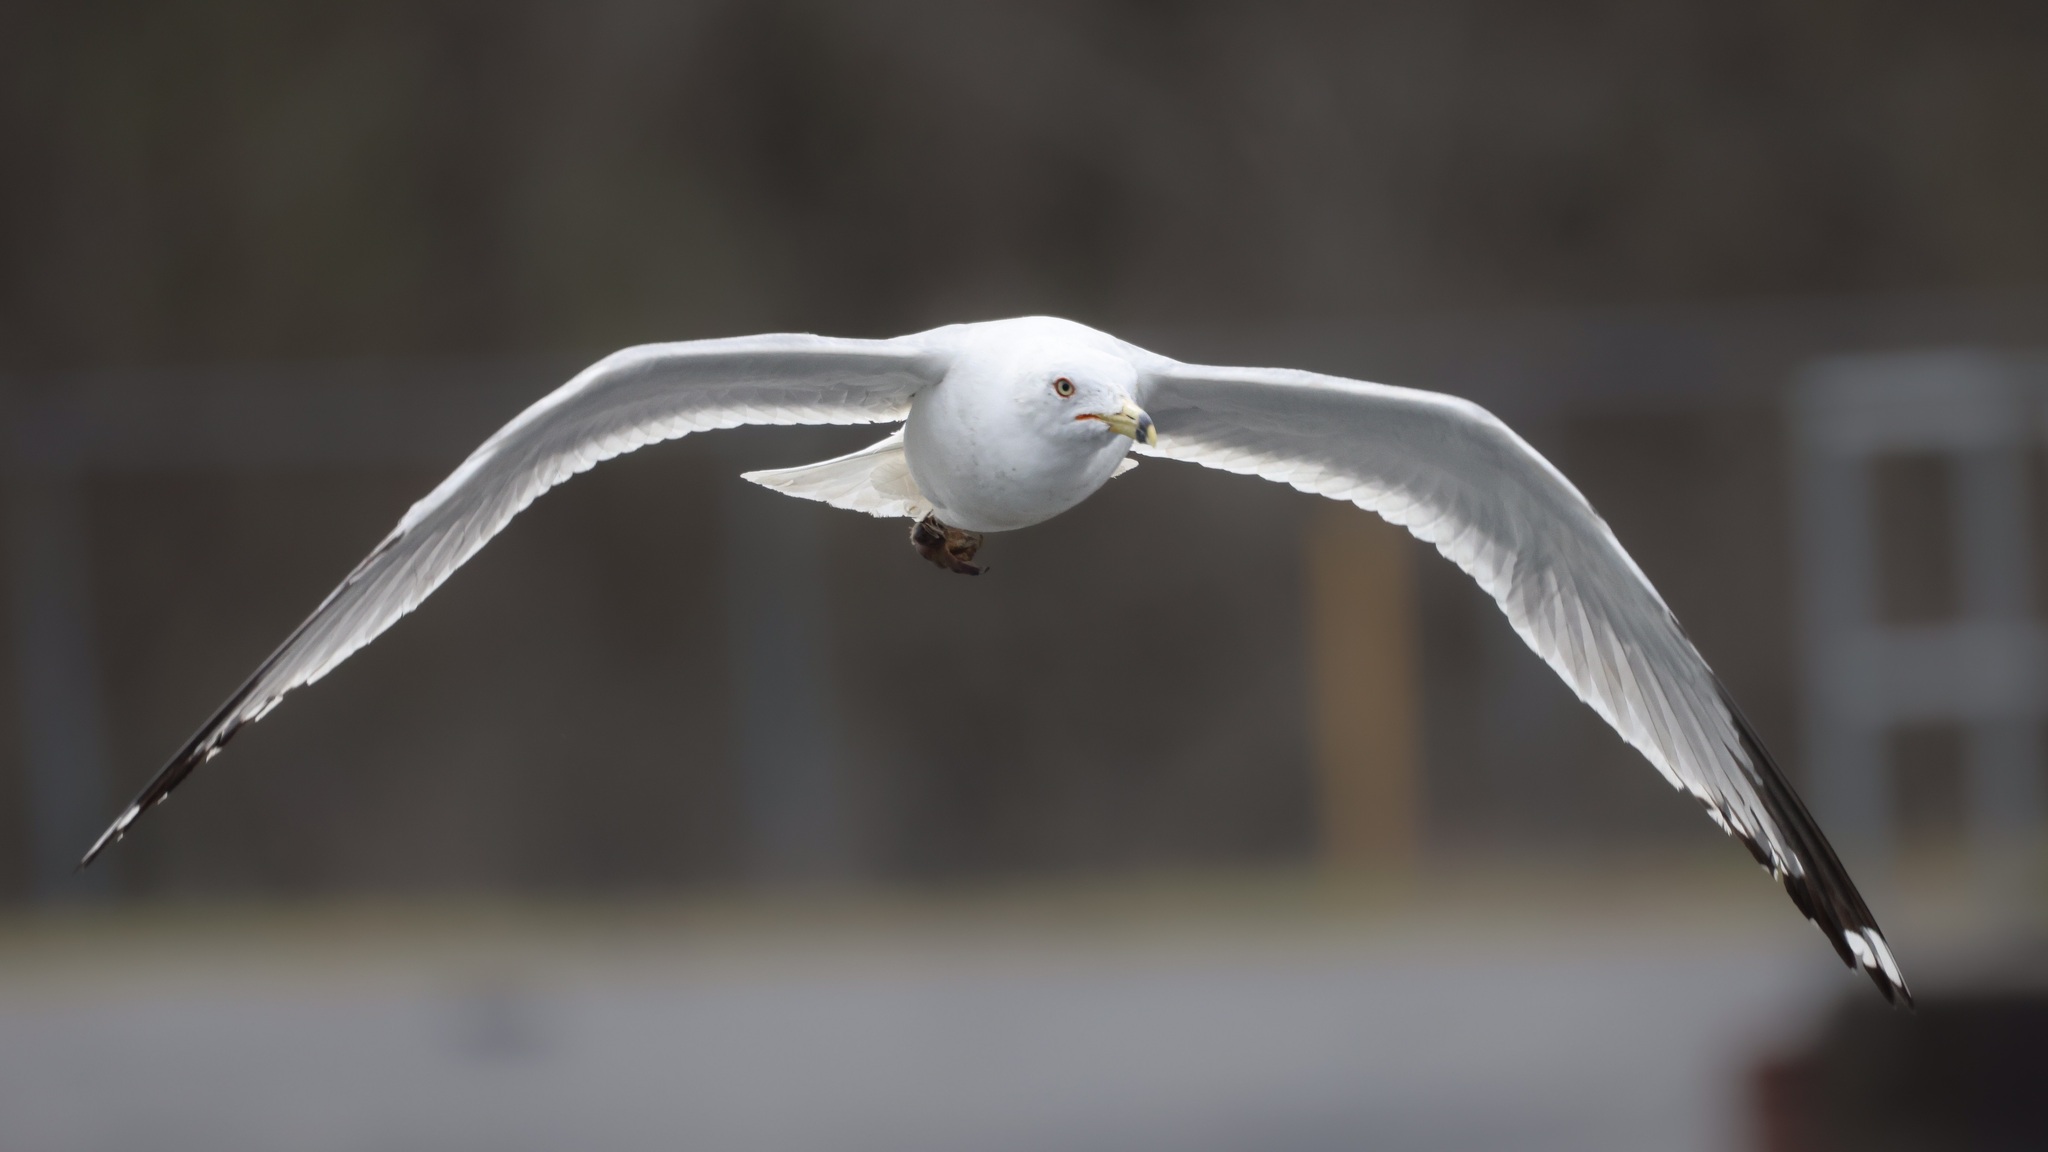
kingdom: Animalia
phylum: Chordata
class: Aves
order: Charadriiformes
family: Laridae
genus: Larus
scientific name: Larus delawarensis
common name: Ring-billed gull
